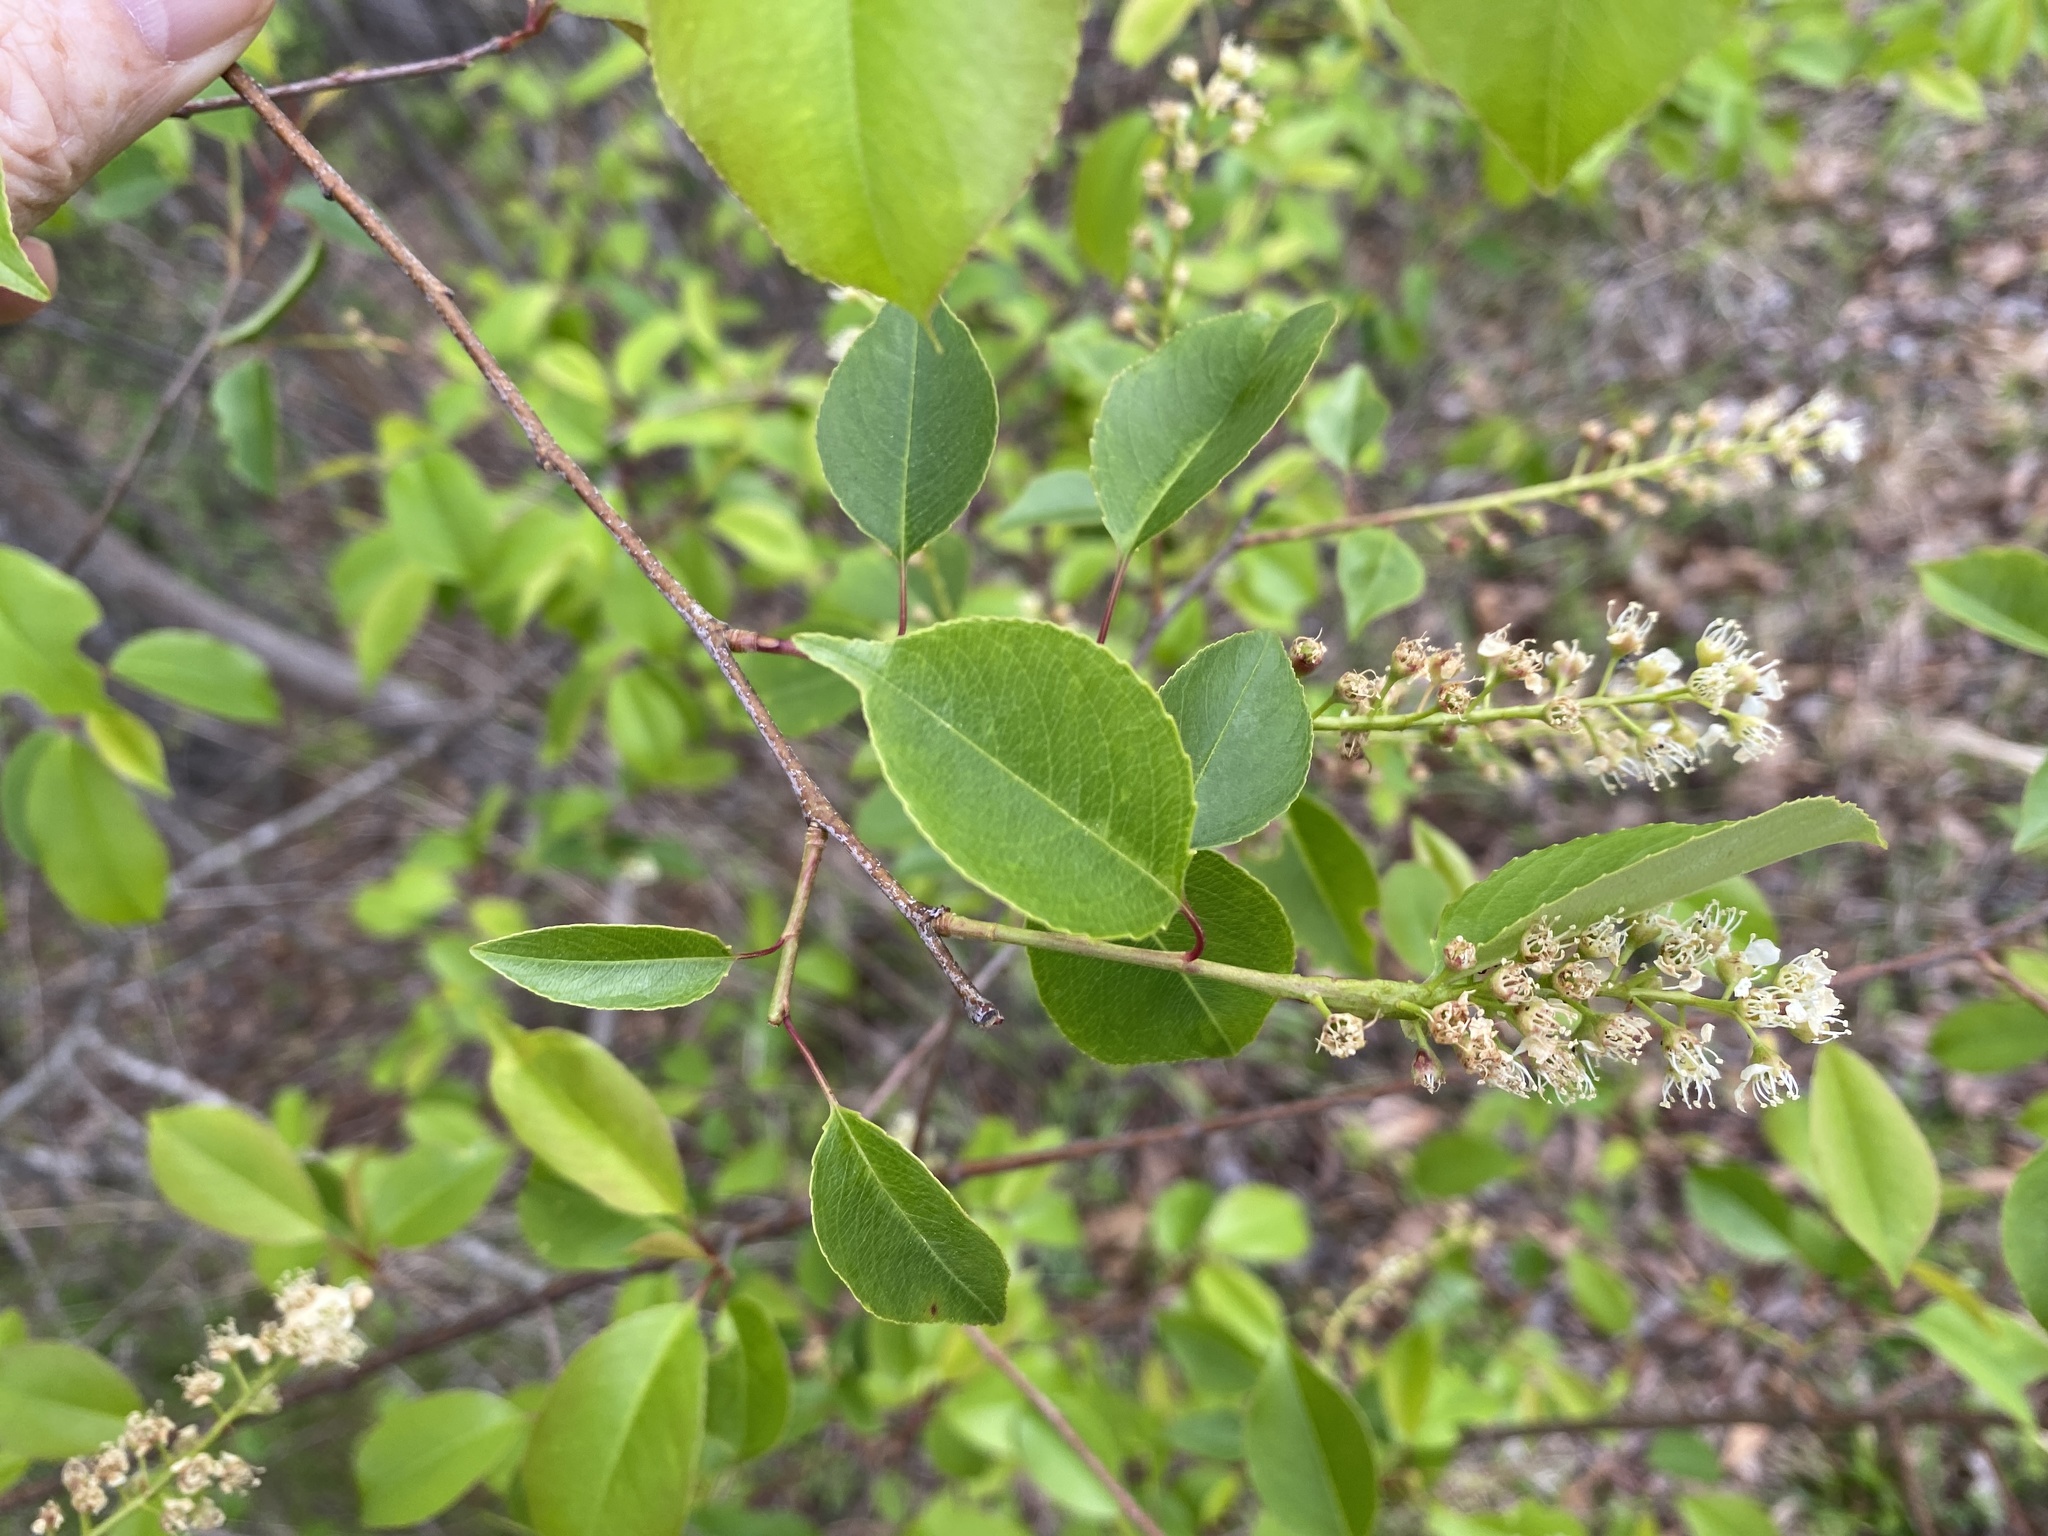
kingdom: Plantae
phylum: Tracheophyta
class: Magnoliopsida
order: Rosales
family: Rosaceae
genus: Prunus
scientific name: Prunus serotina
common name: Black cherry
